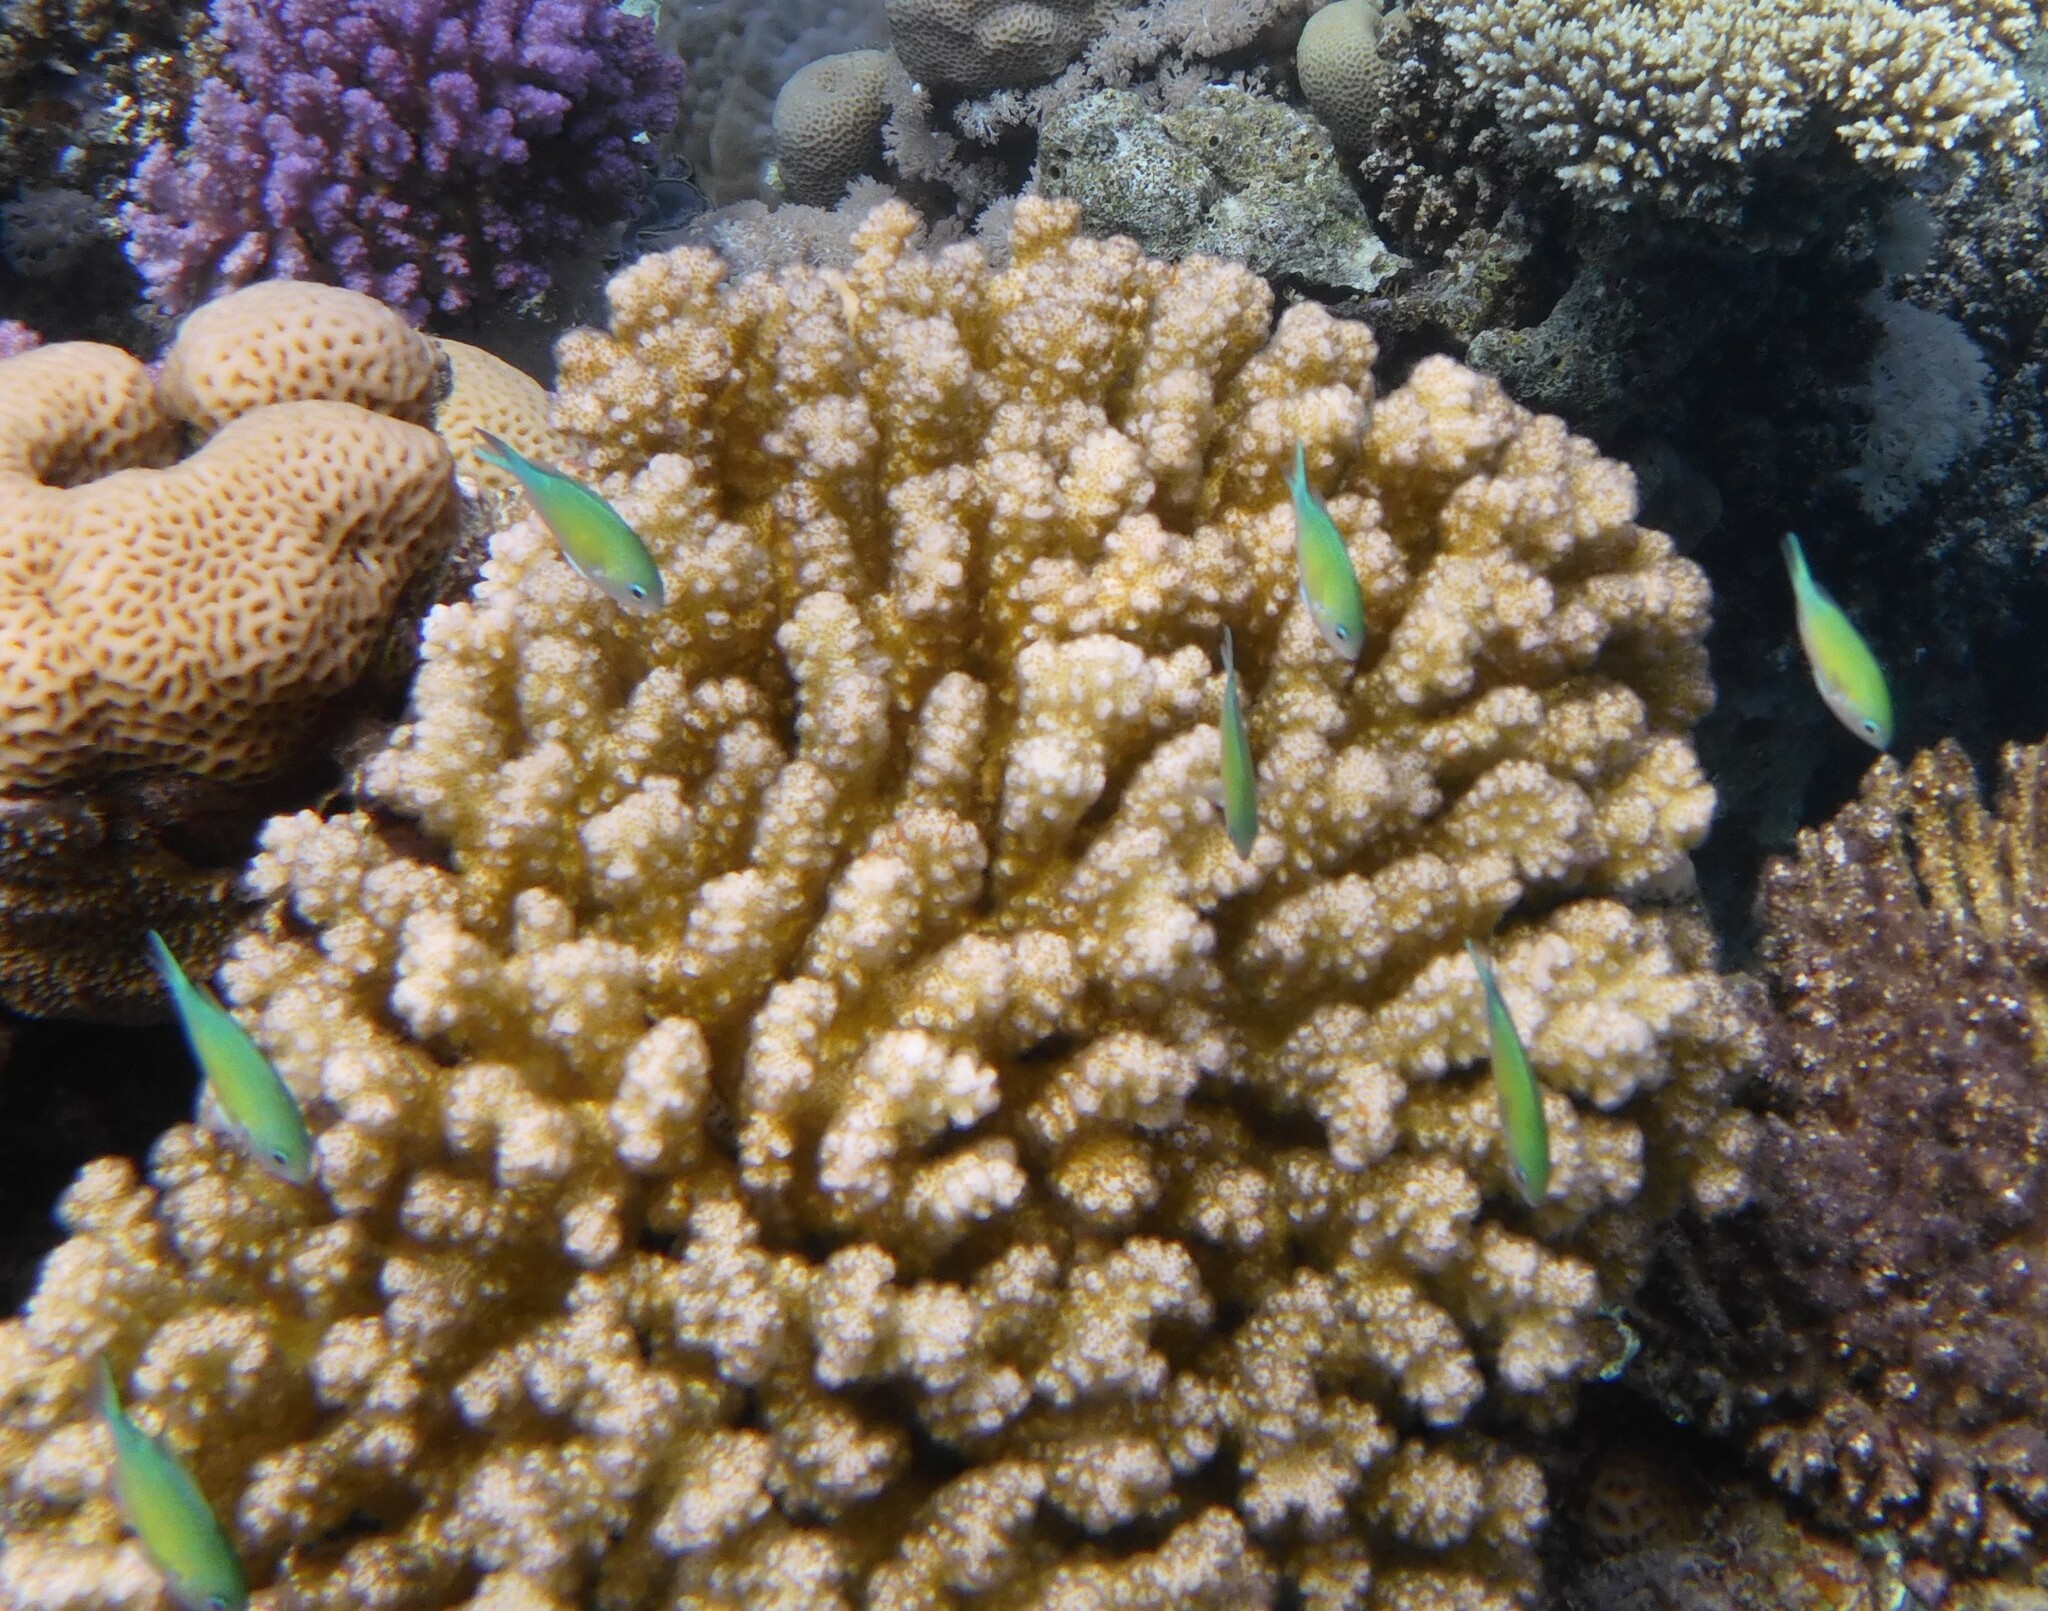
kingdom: Animalia
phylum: Chordata
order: Perciformes
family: Pomacentridae
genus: Chromis
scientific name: Chromis viridis
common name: Blue-green chromis
